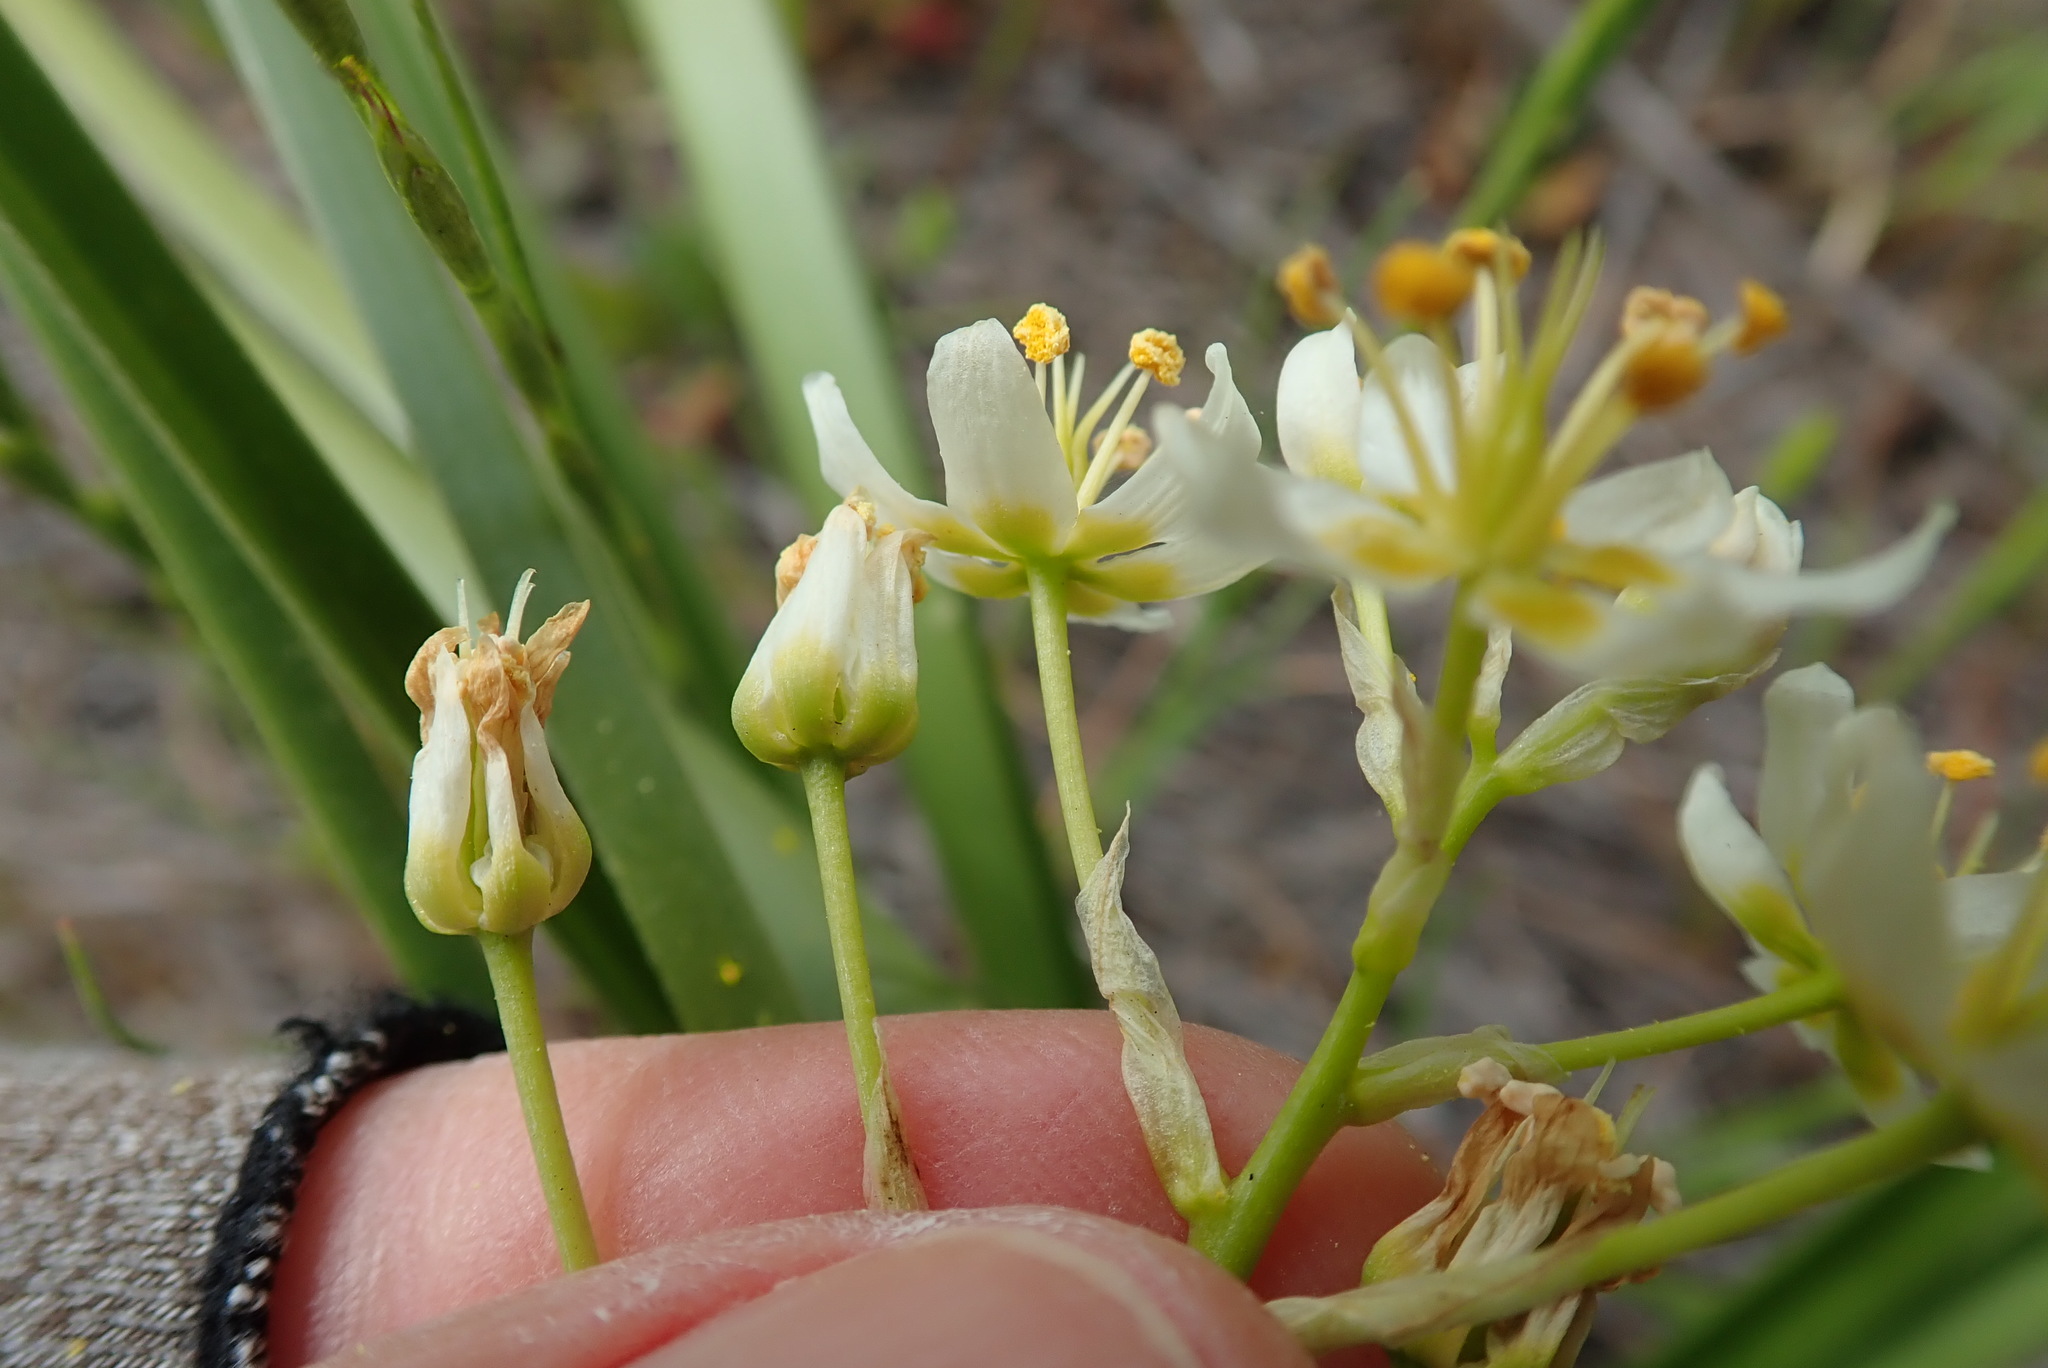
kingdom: Plantae
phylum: Tracheophyta
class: Liliopsida
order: Liliales
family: Melanthiaceae
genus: Toxicoscordion
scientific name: Toxicoscordion fremontii
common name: Fremont's death camas
